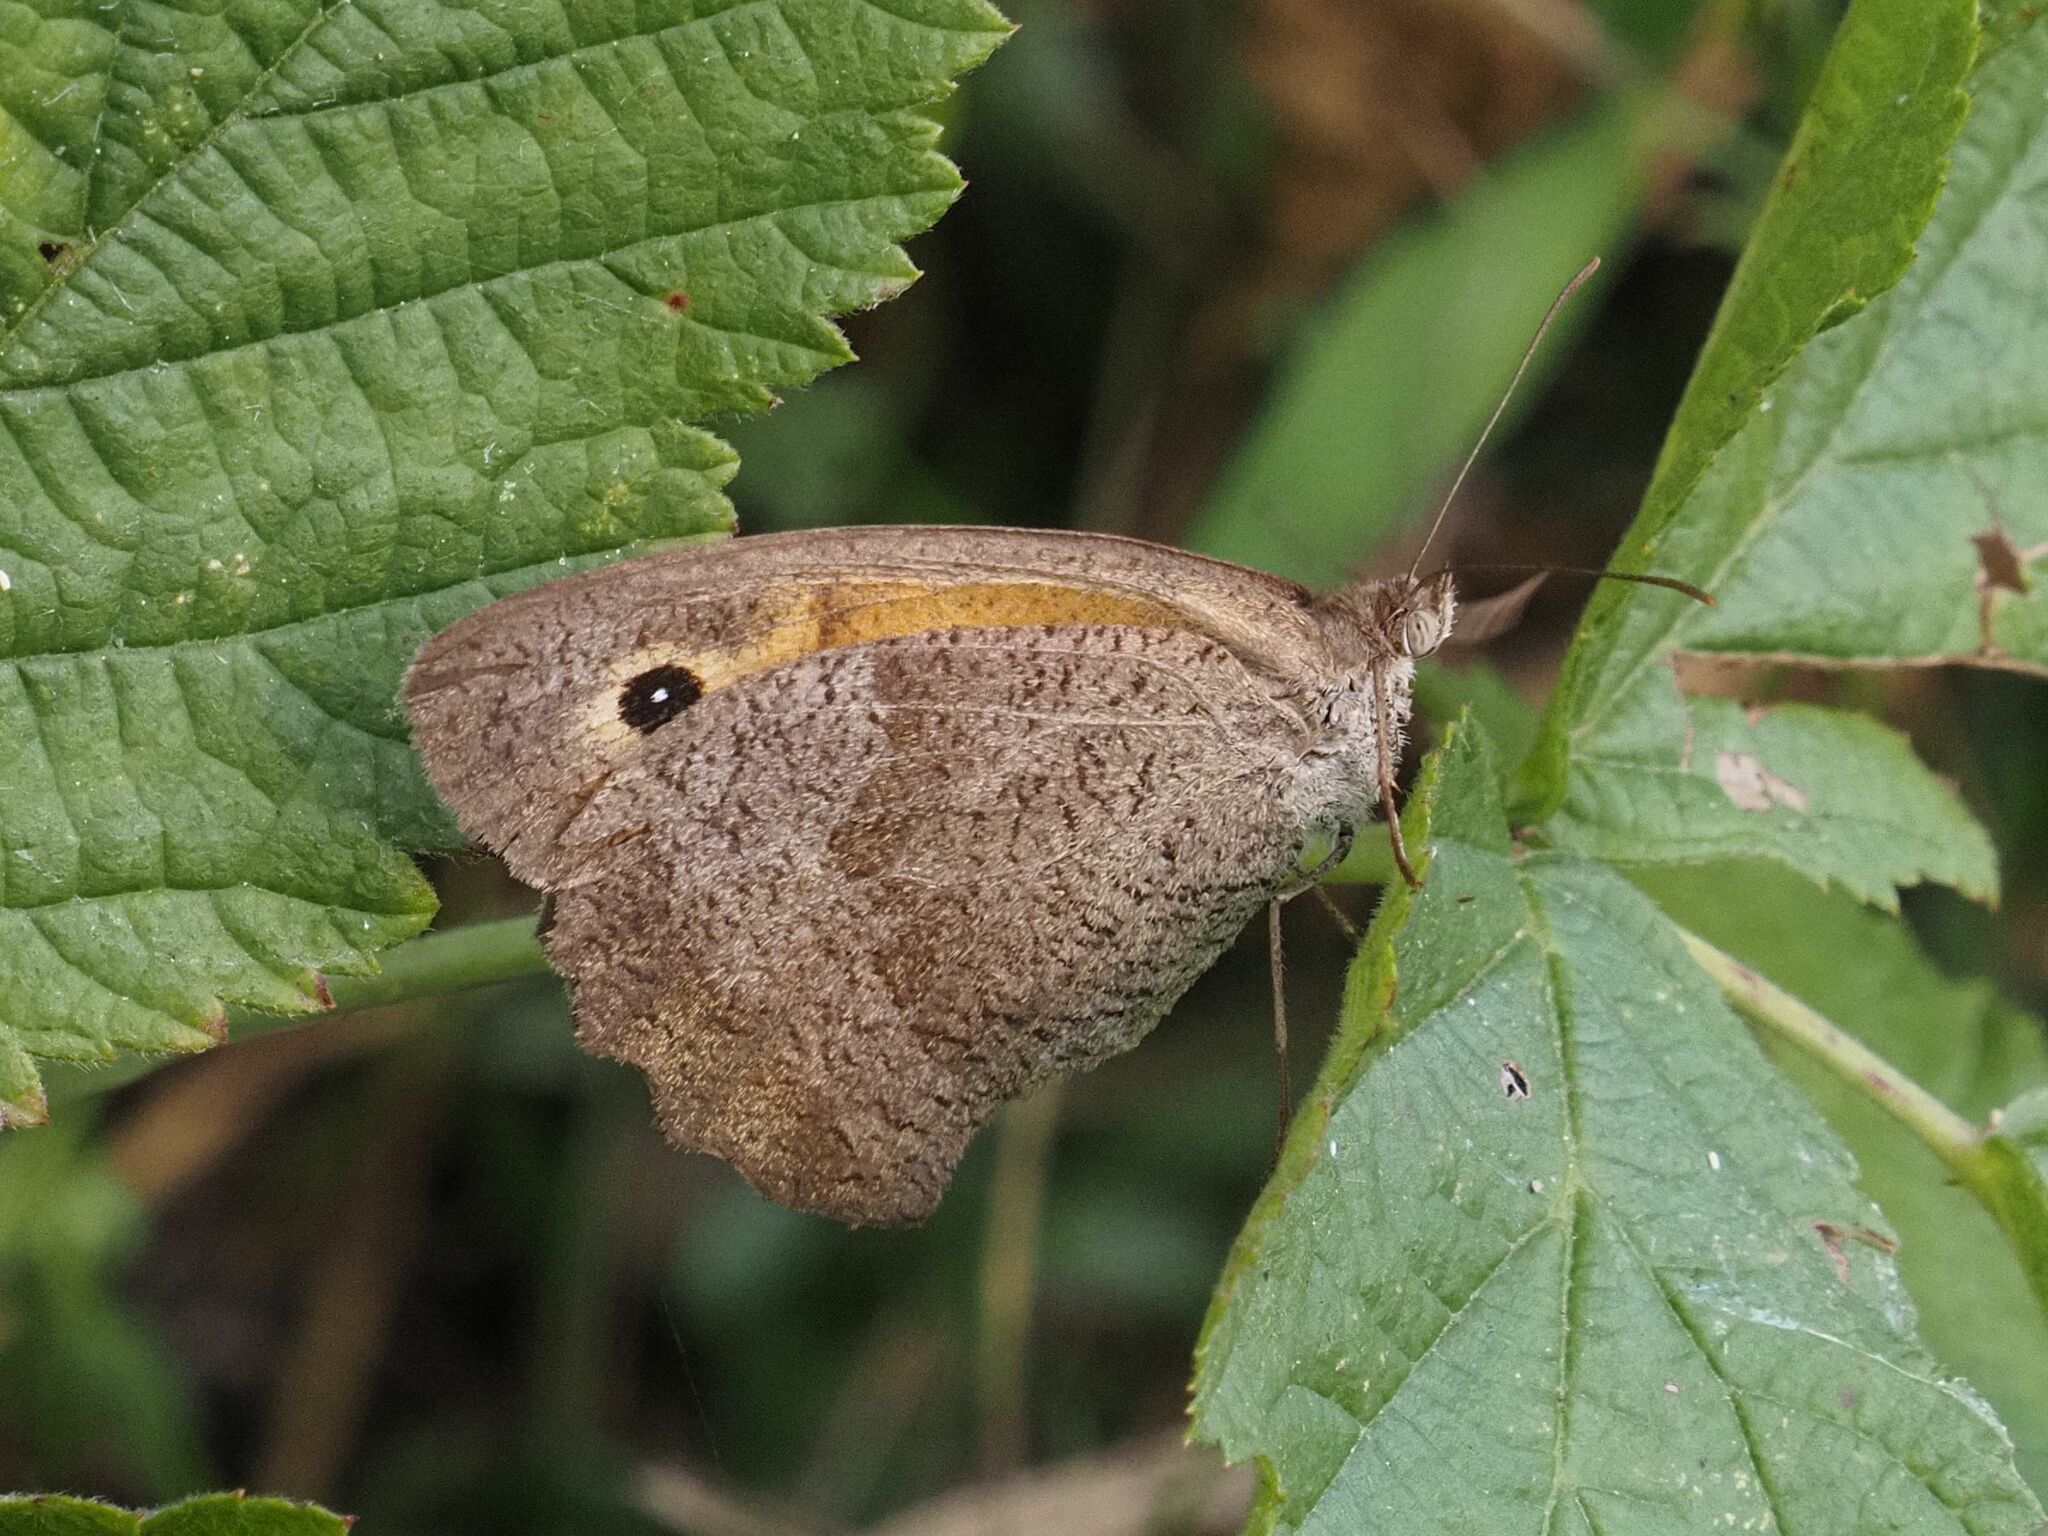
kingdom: Animalia
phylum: Arthropoda
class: Insecta
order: Lepidoptera
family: Nymphalidae
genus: Maniola
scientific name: Maniola jurtina
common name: Meadow brown
